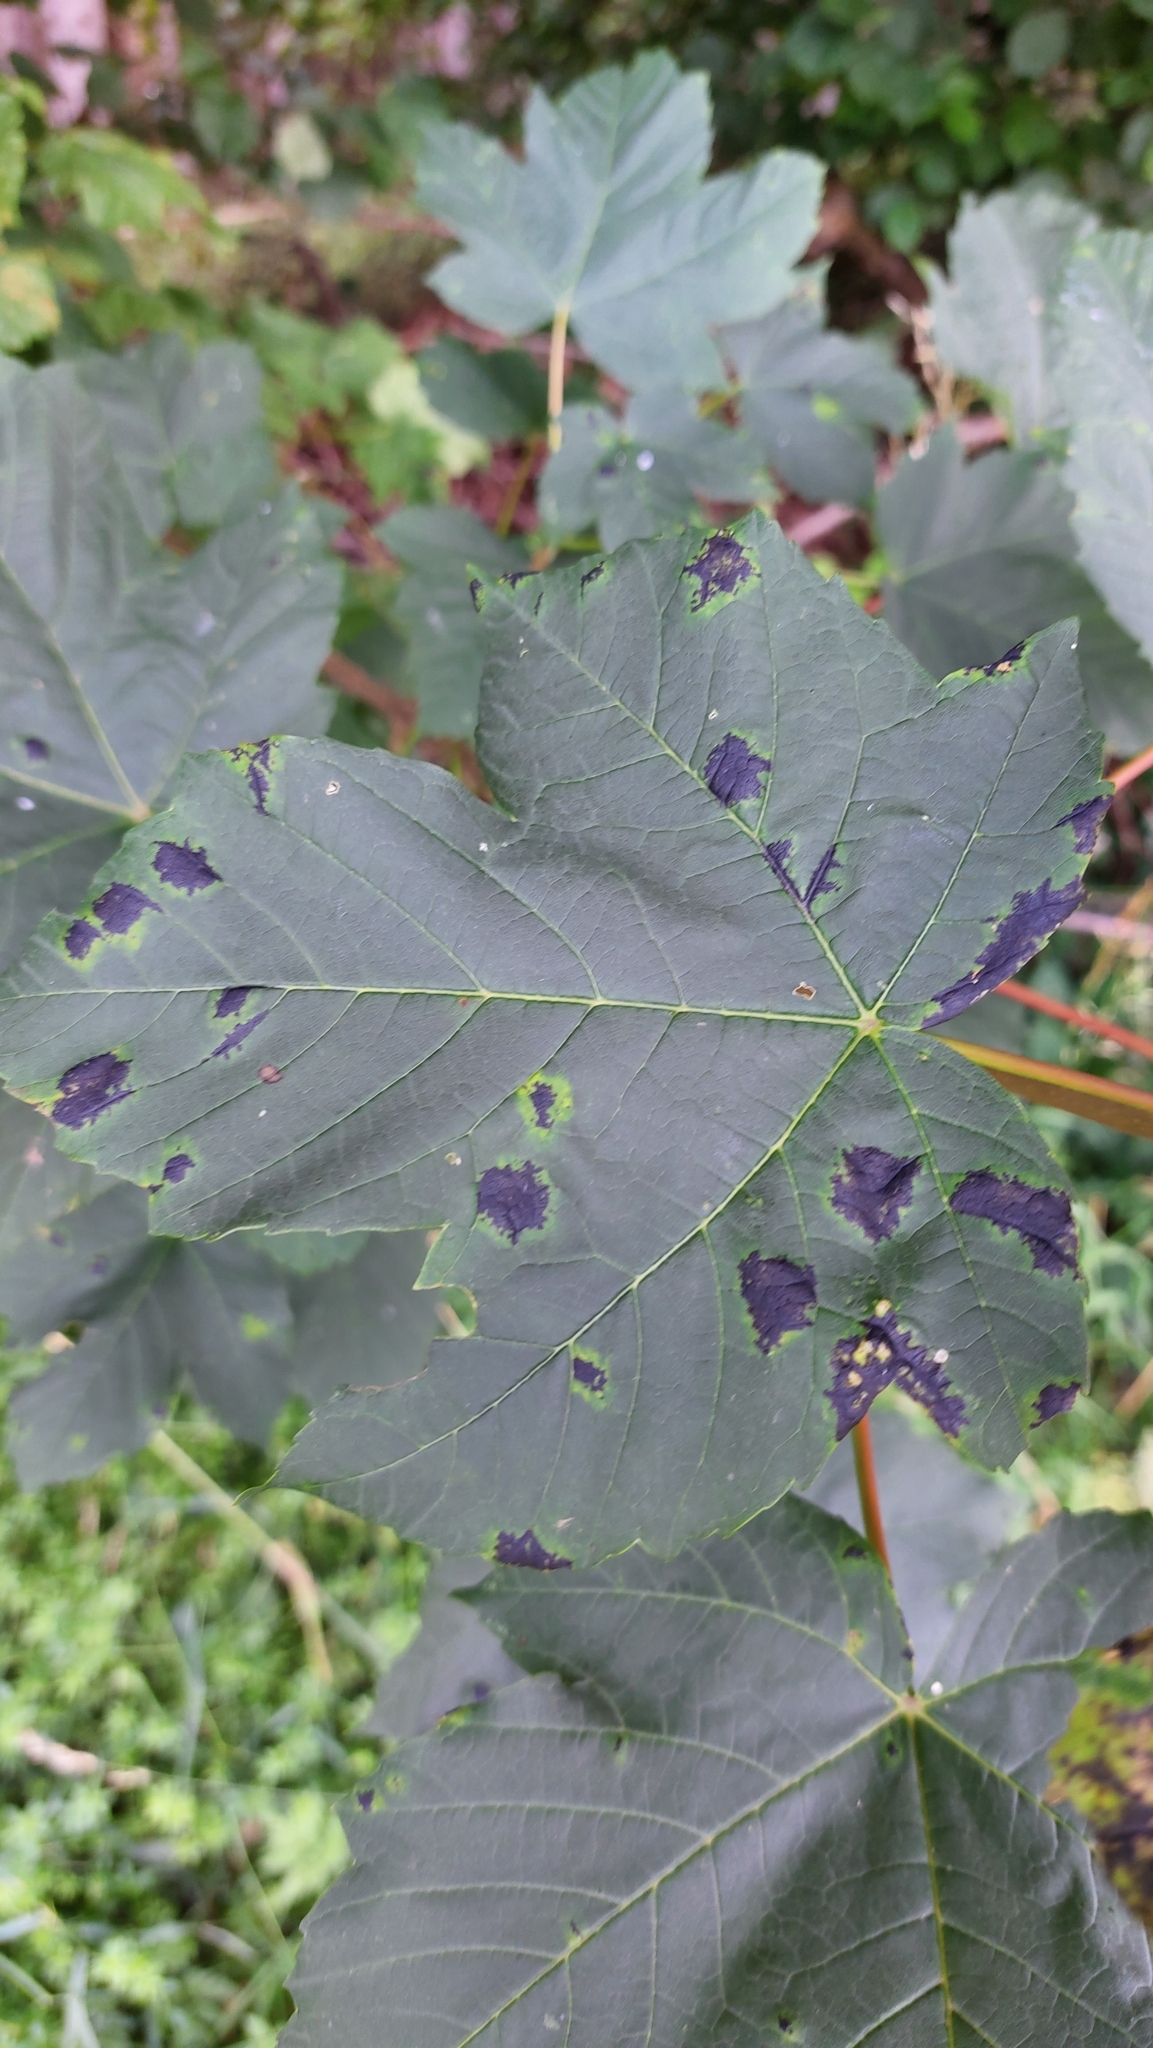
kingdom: Fungi
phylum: Ascomycota
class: Leotiomycetes
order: Rhytismatales
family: Rhytismataceae
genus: Rhytisma
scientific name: Rhytisma acerinum
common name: European tar spot
